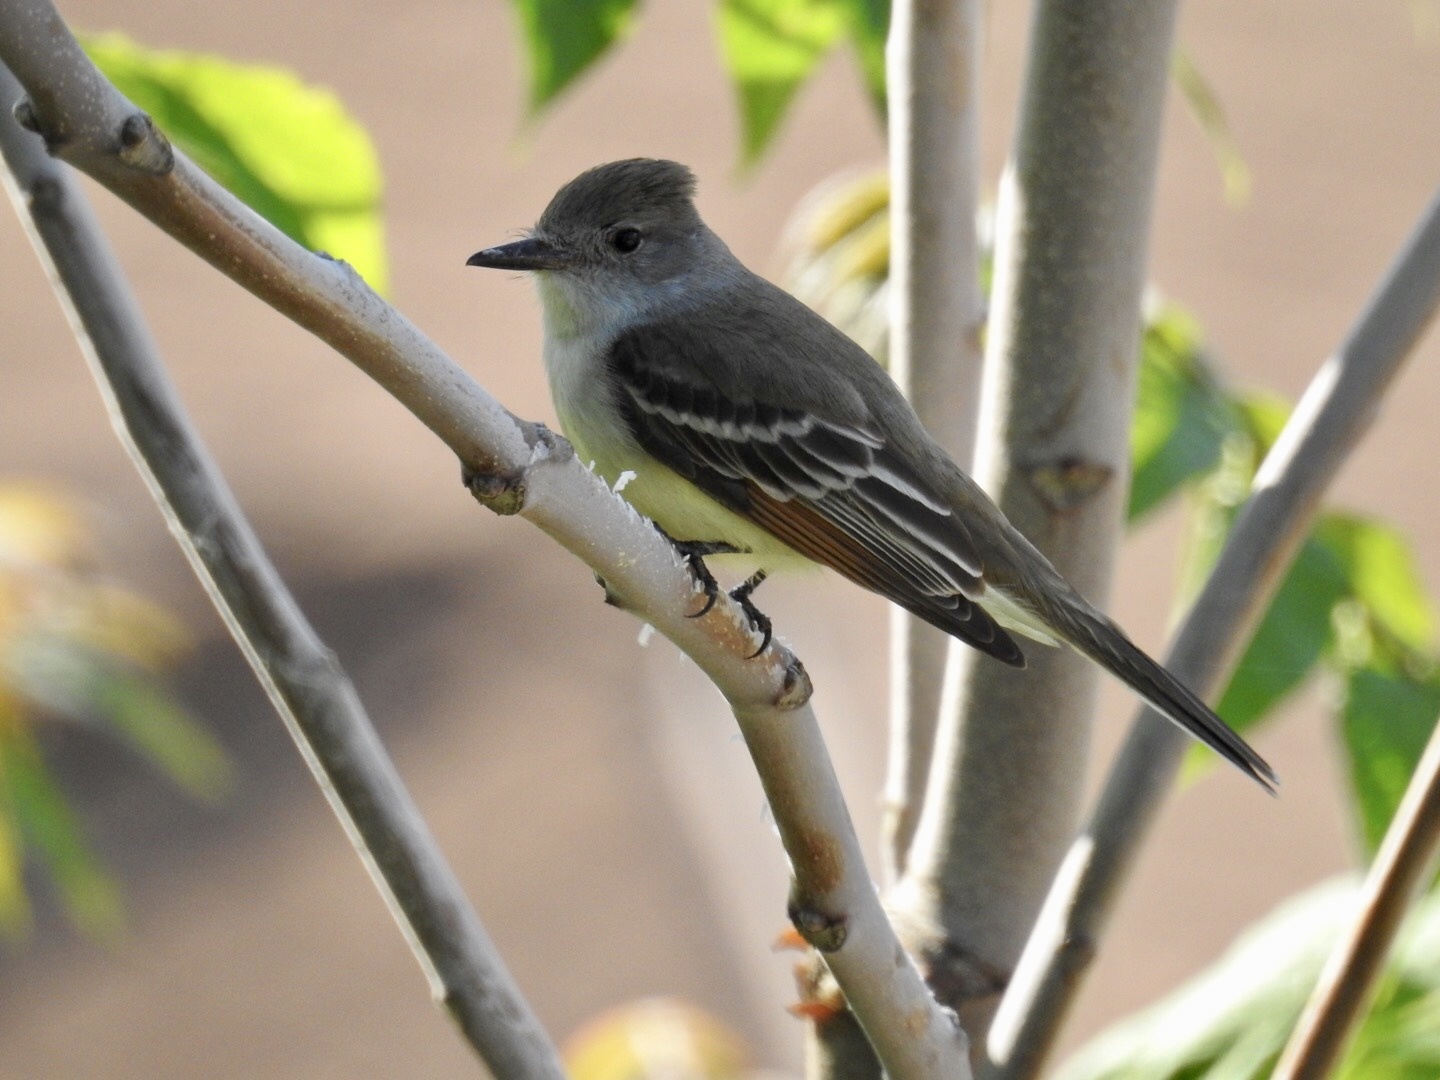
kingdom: Animalia
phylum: Chordata
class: Aves
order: Passeriformes
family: Tyrannidae
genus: Myiarchus
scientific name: Myiarchus cinerascens
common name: Ash-throated flycatcher
